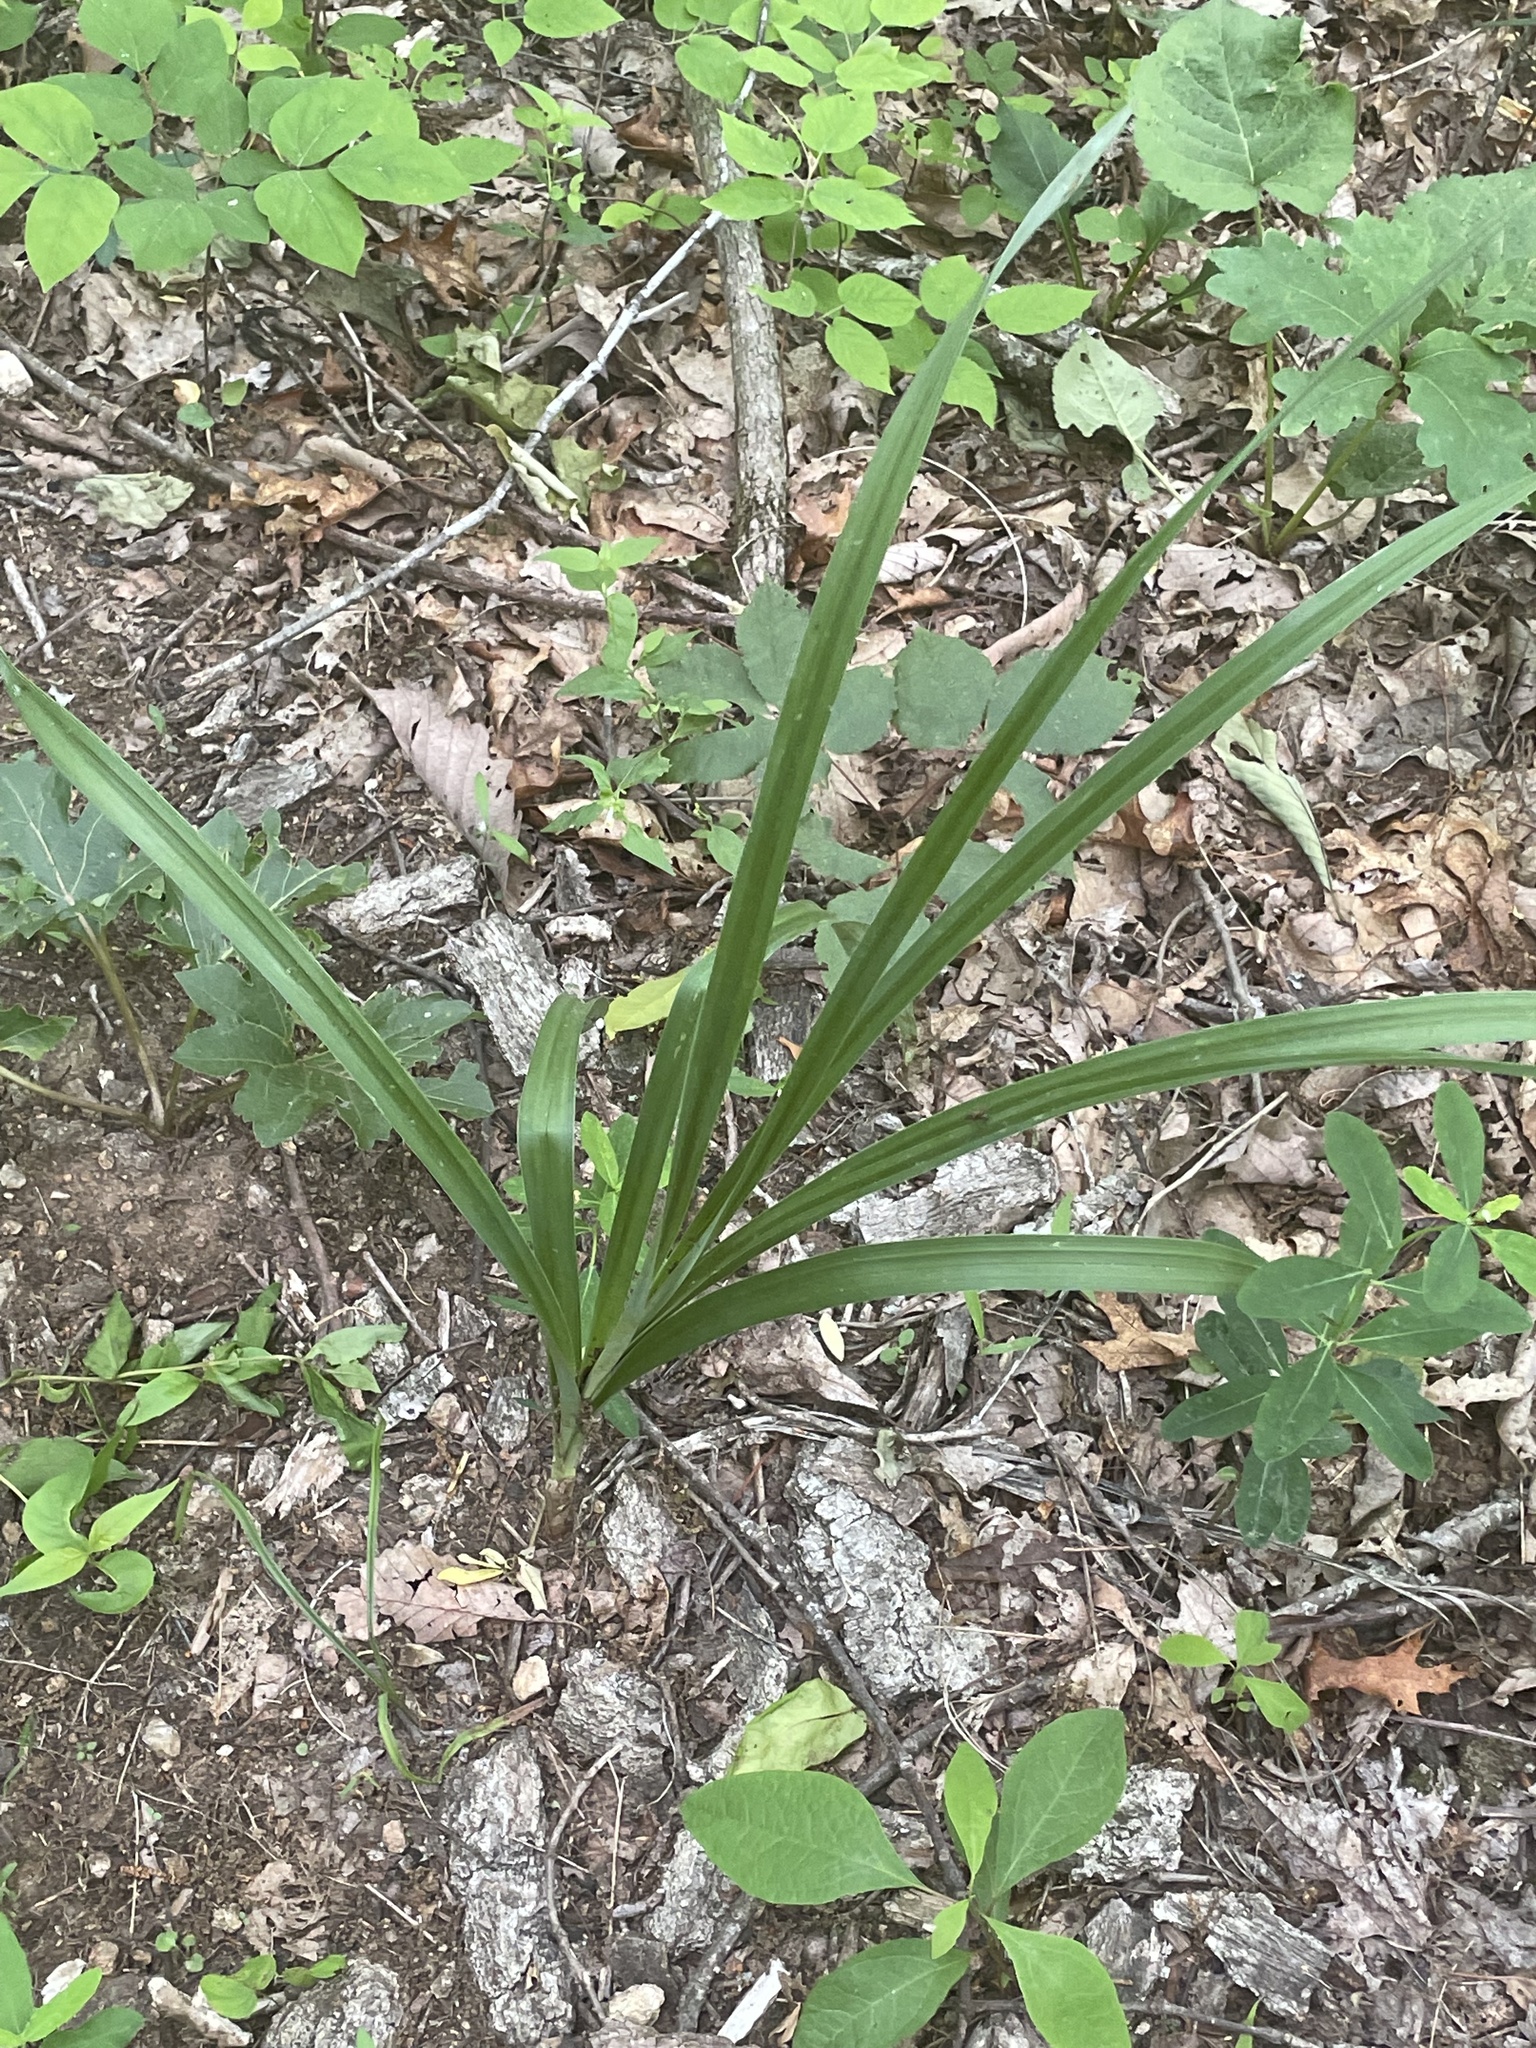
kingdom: Plantae
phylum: Tracheophyta
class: Liliopsida
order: Liliales
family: Melanthiaceae
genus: Stenanthium
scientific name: Stenanthium gramineum
